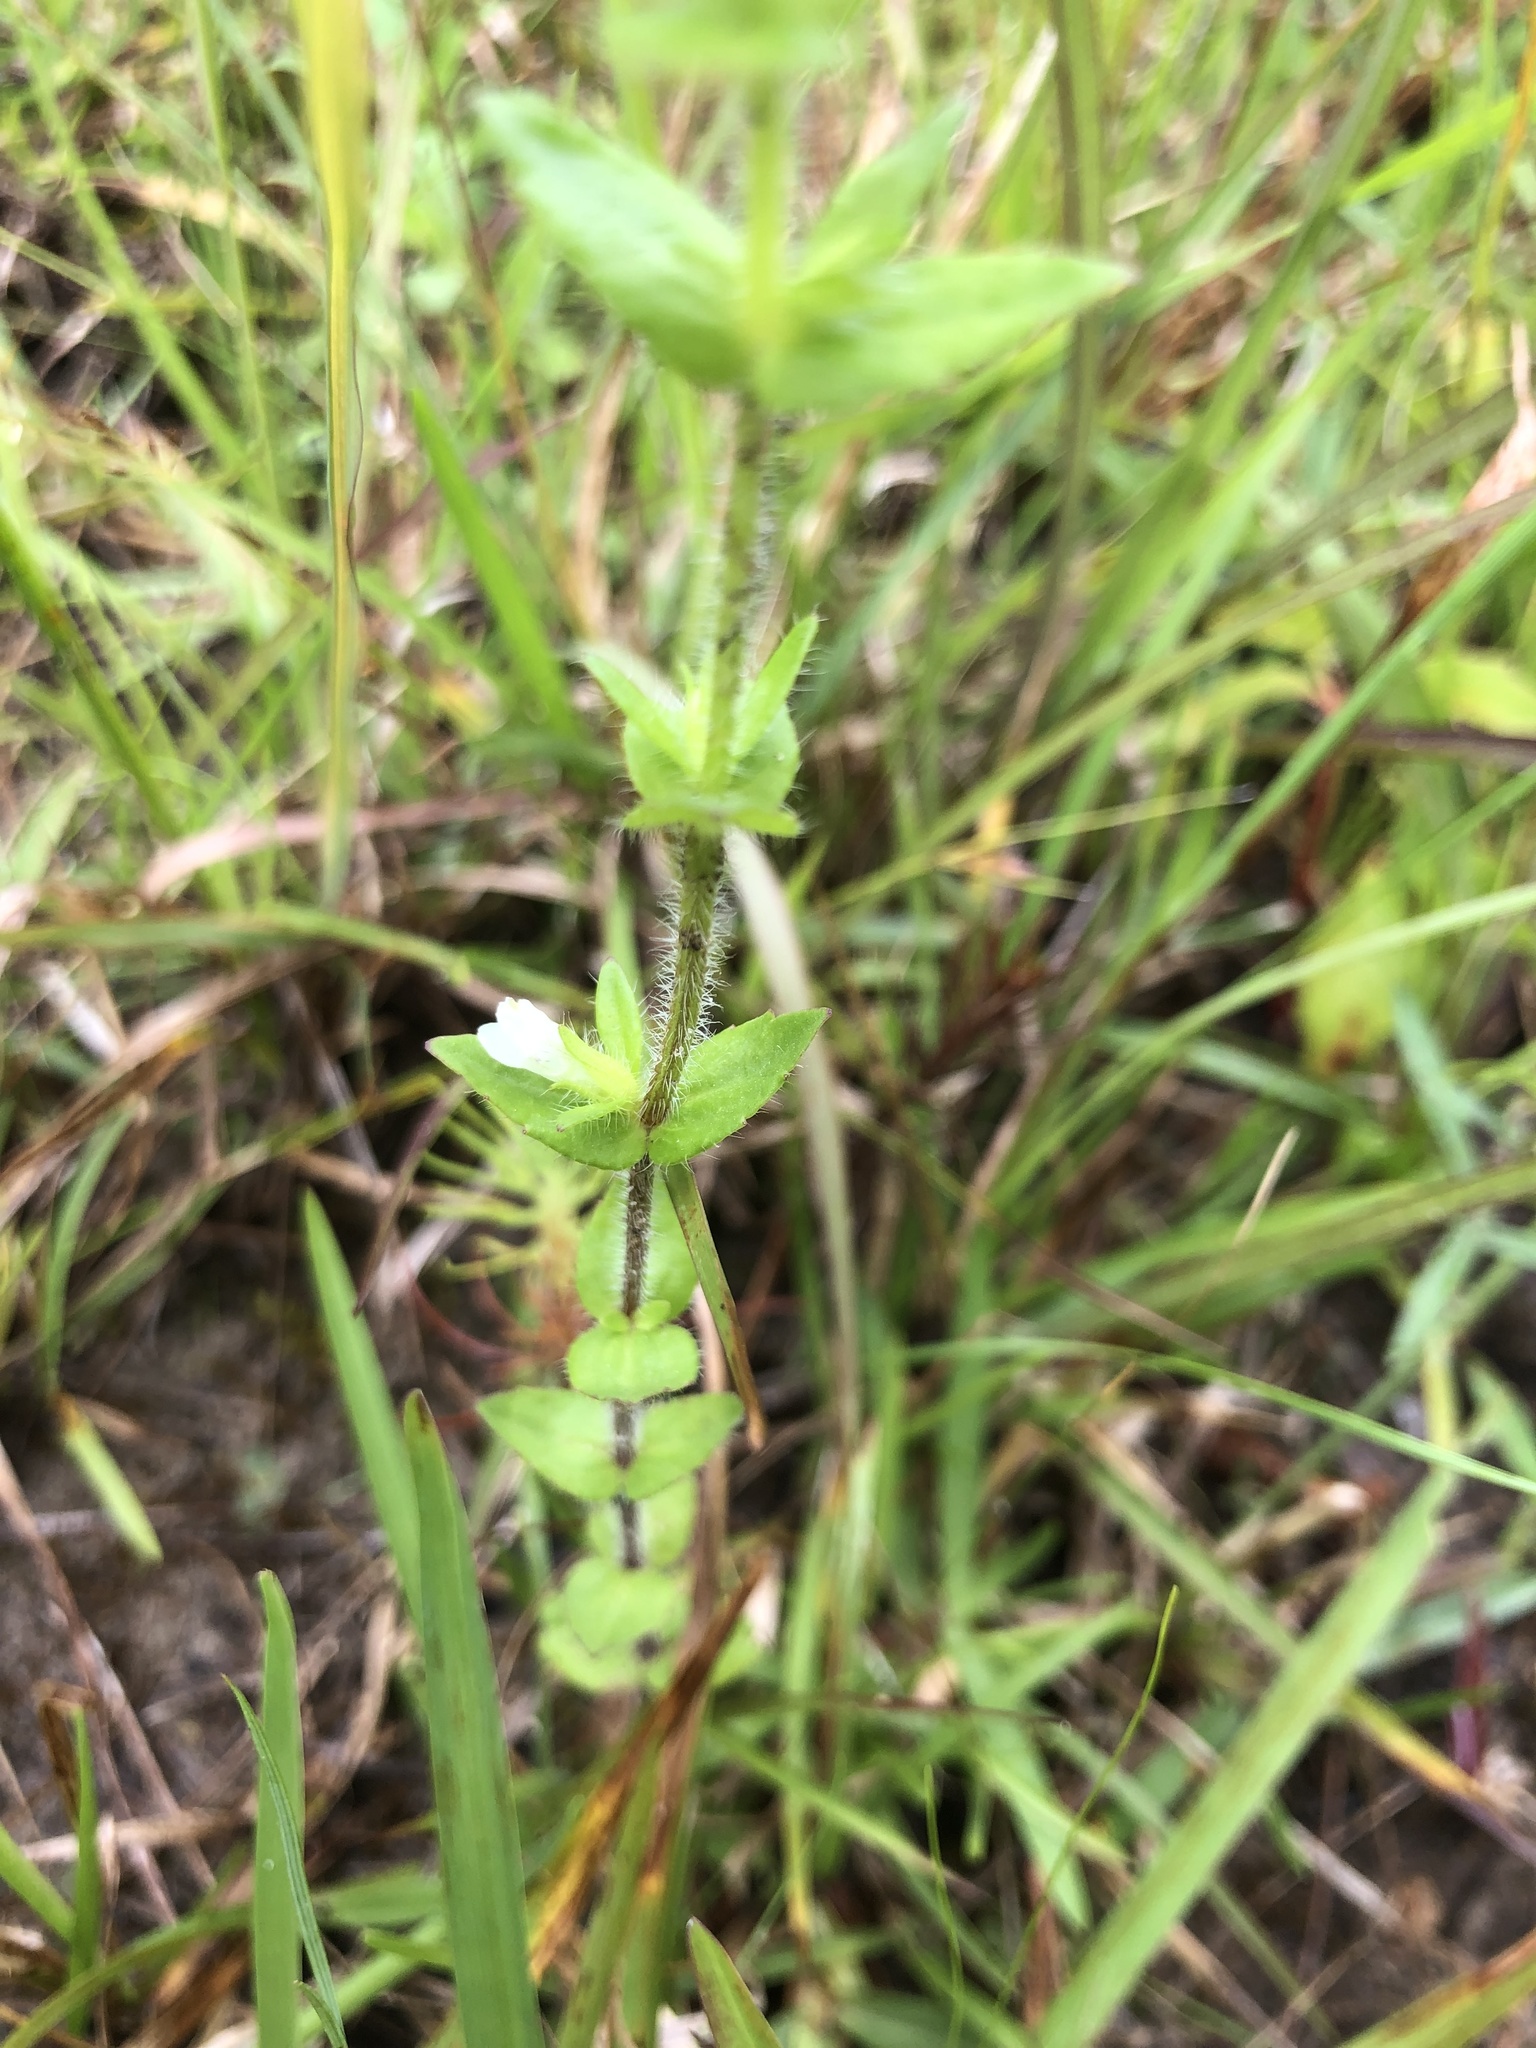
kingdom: Plantae
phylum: Tracheophyta
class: Magnoliopsida
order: Lamiales
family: Plantaginaceae
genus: Gratiola
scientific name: Gratiola pilosa
